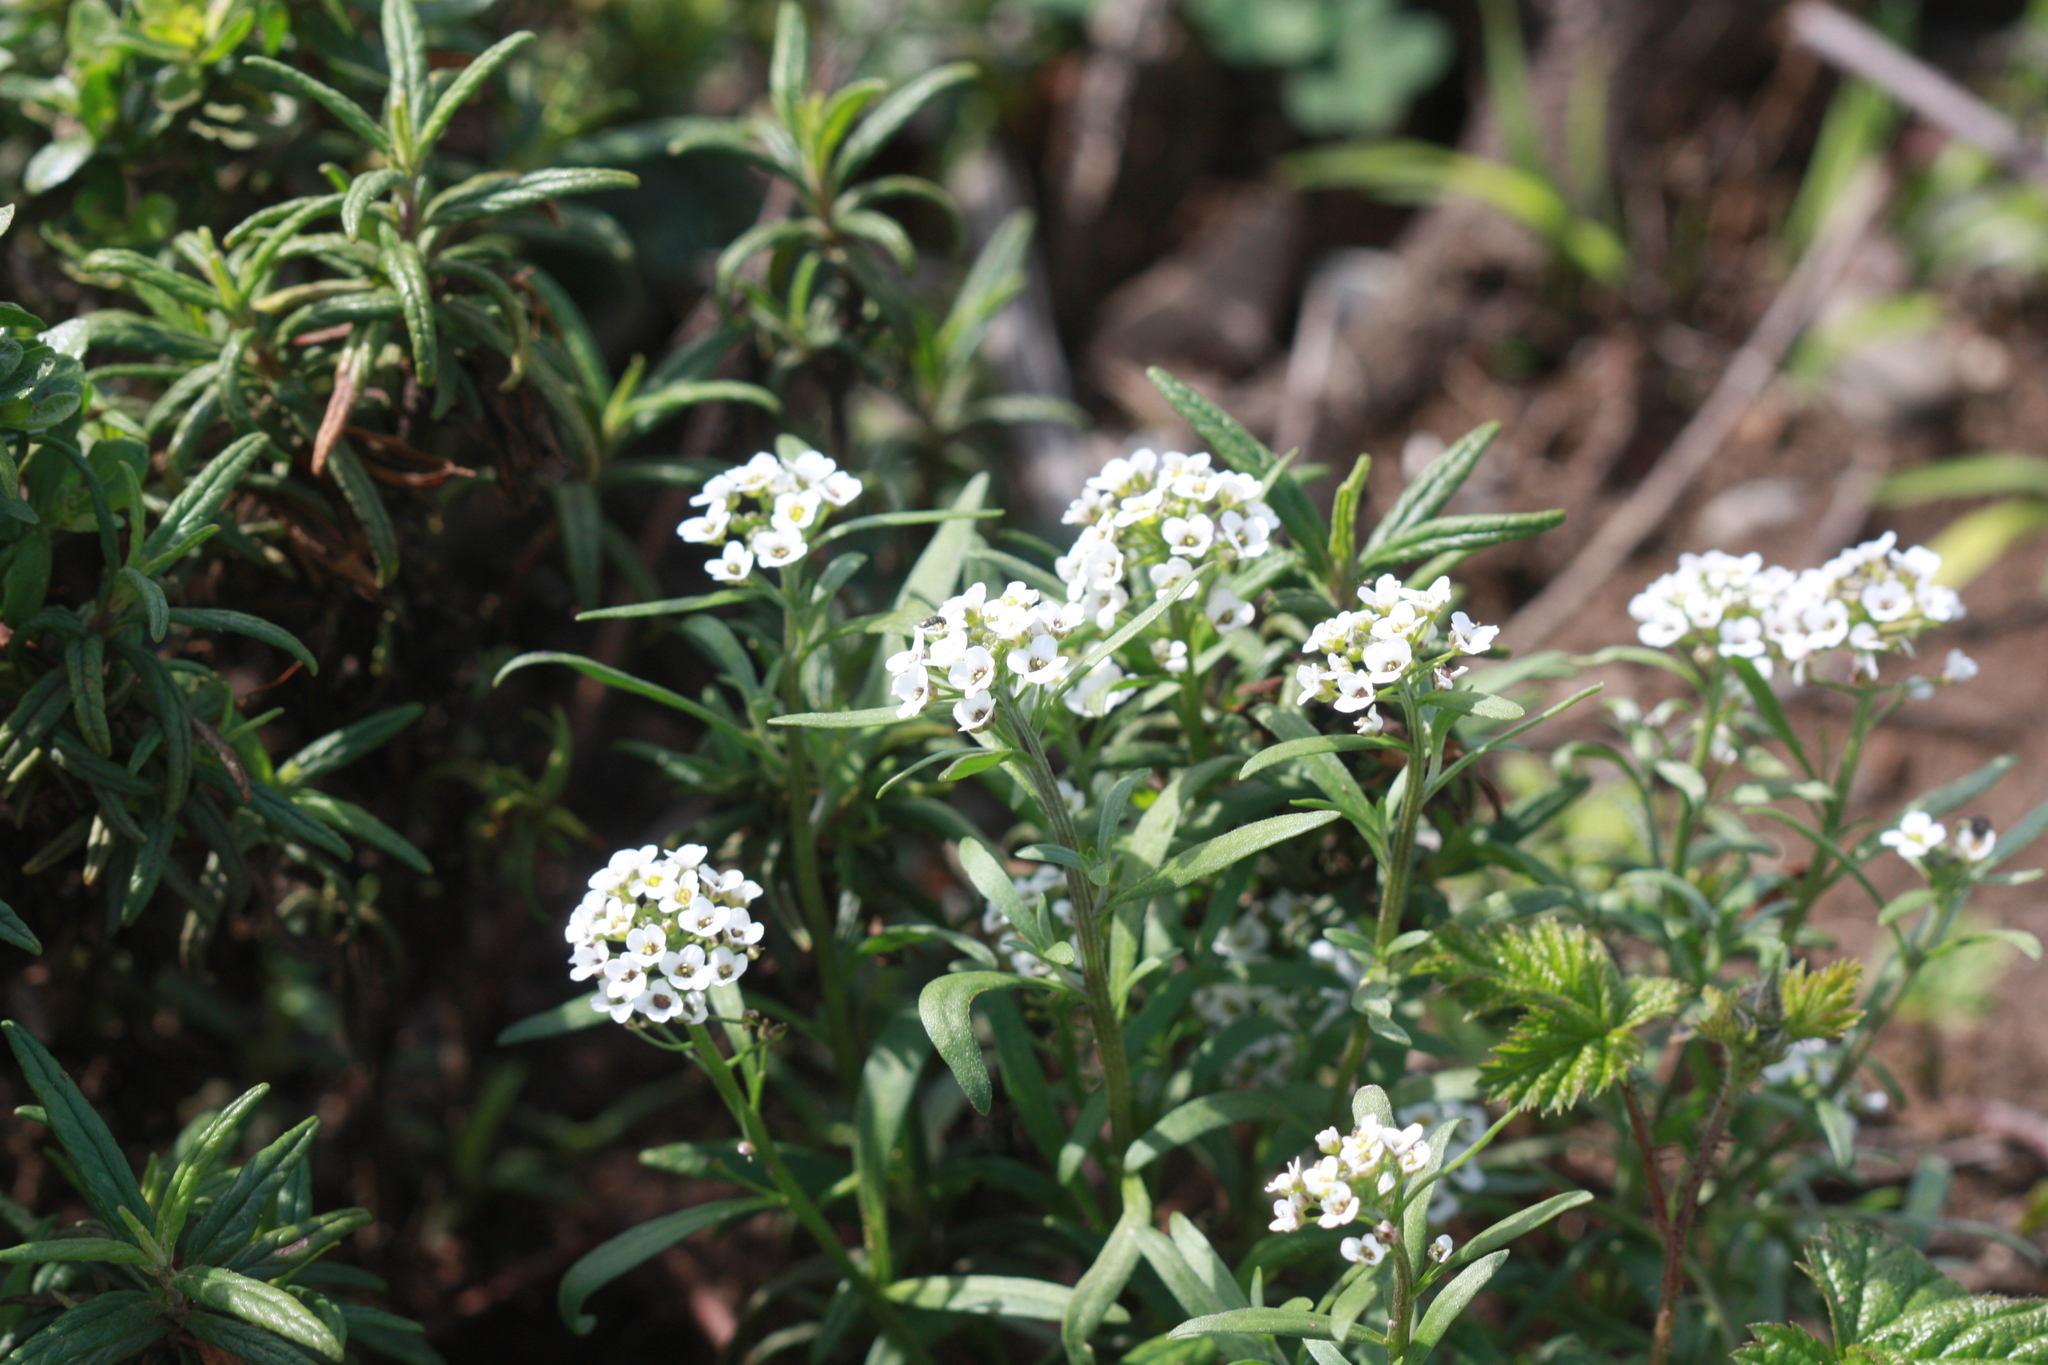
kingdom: Plantae
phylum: Tracheophyta
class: Magnoliopsida
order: Brassicales
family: Brassicaceae
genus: Lobularia
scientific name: Lobularia maritima
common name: Sweet alison
